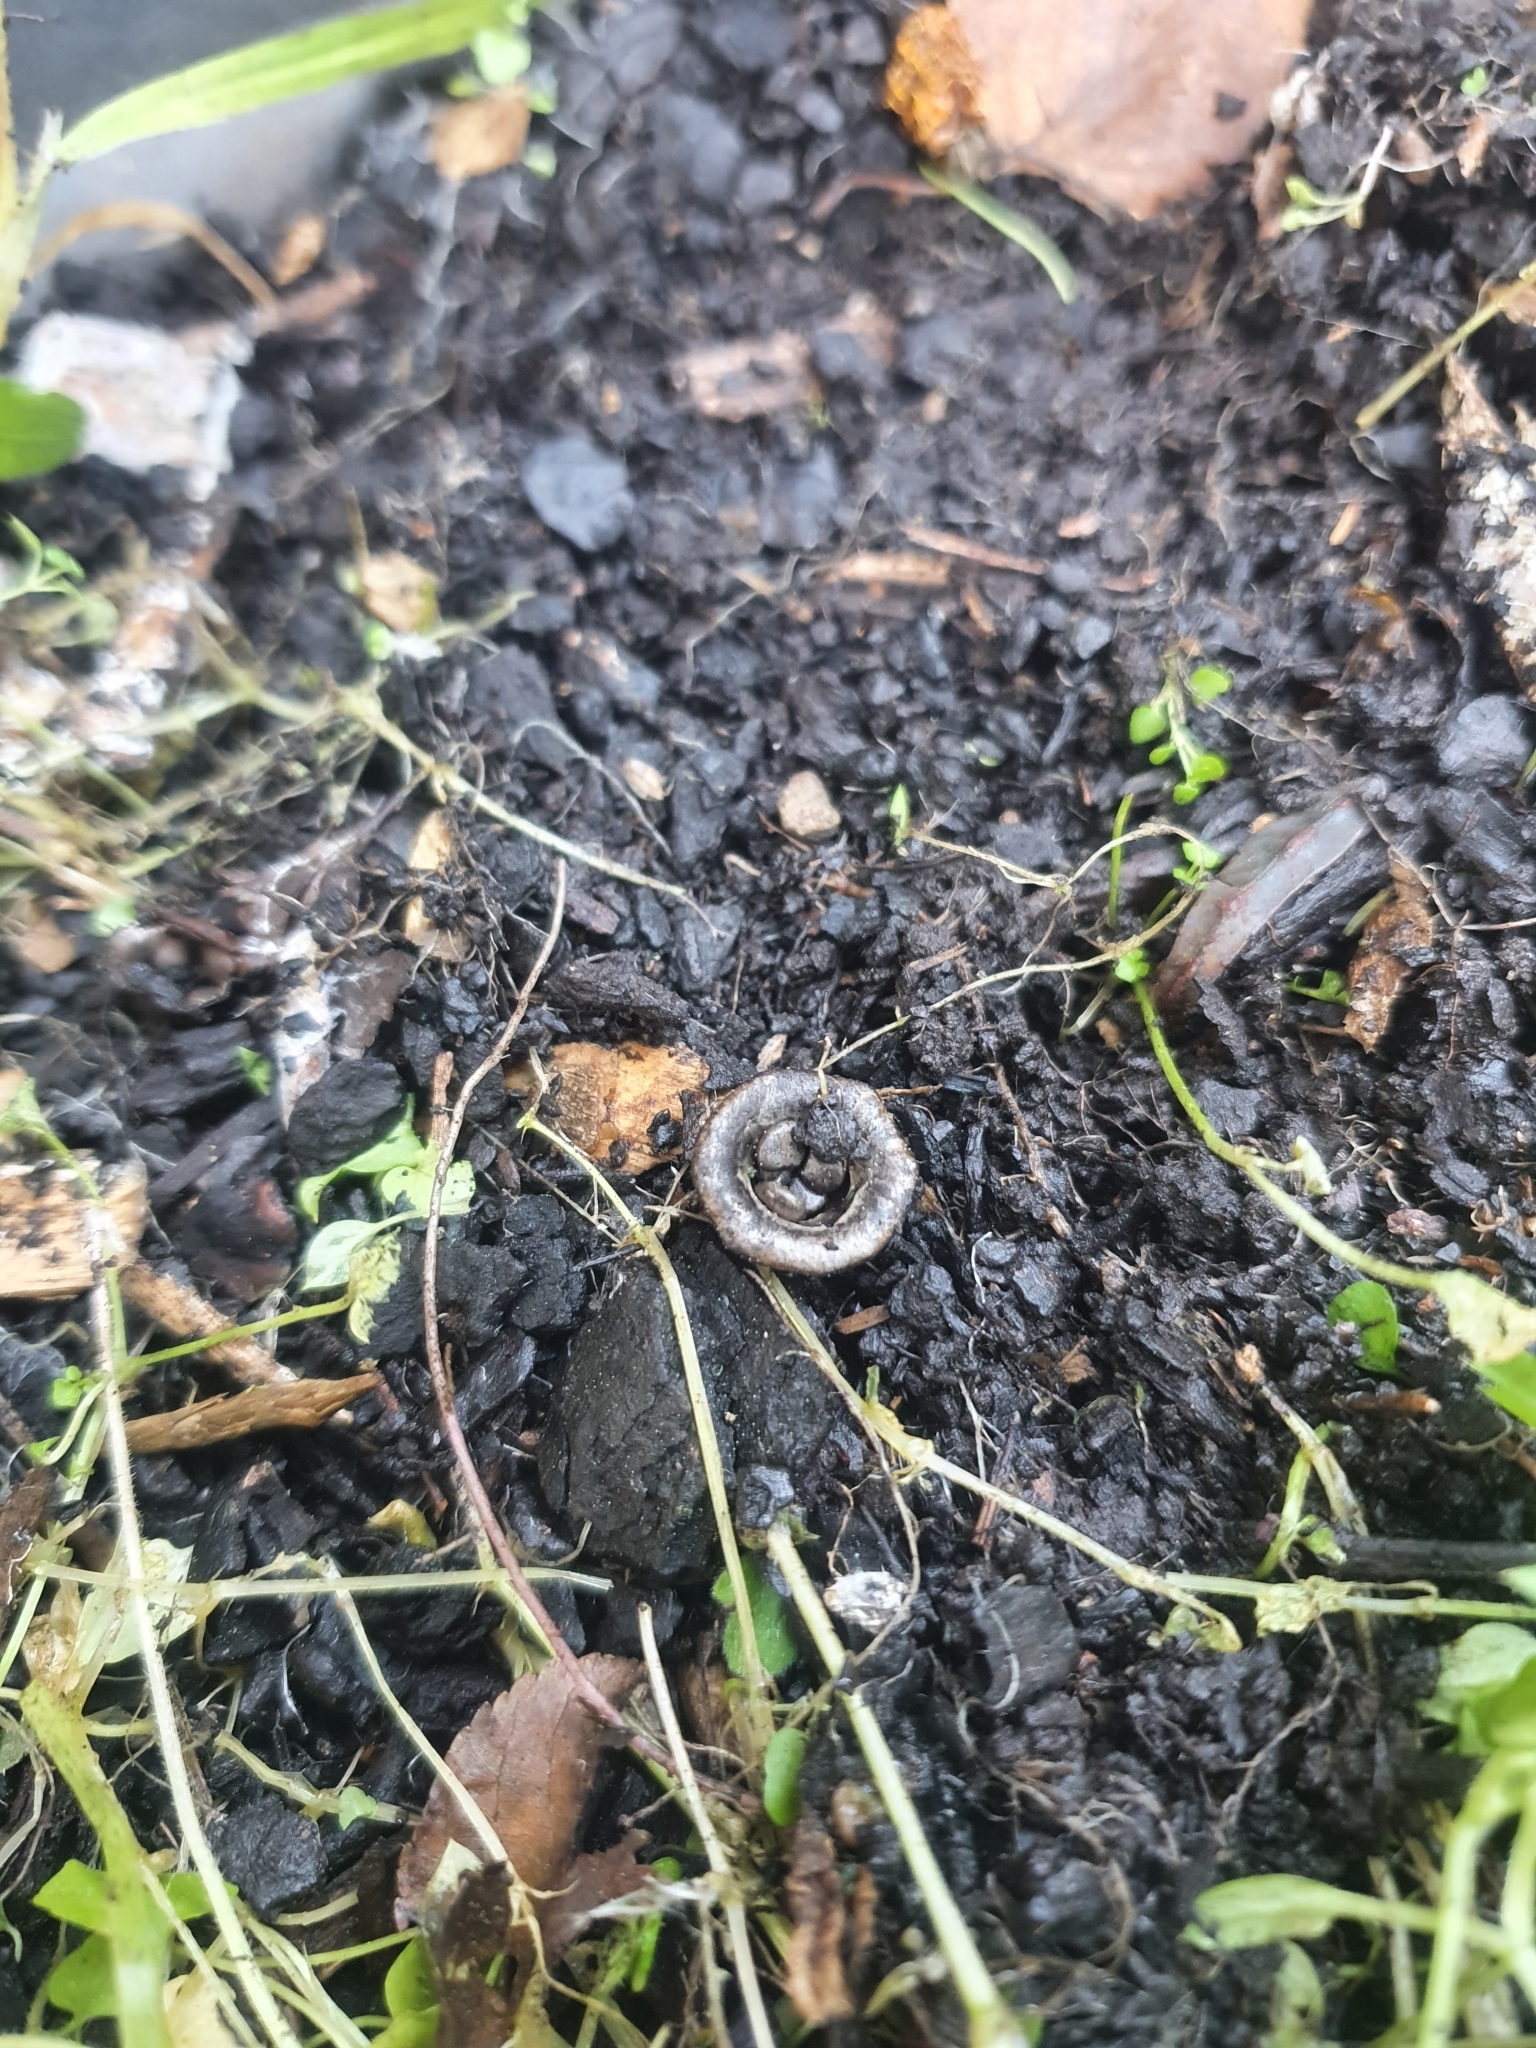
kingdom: Fungi
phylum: Basidiomycota
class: Agaricomycetes
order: Agaricales
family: Agaricaceae
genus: Cyathus
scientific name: Cyathus olla
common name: Field bird's nest
